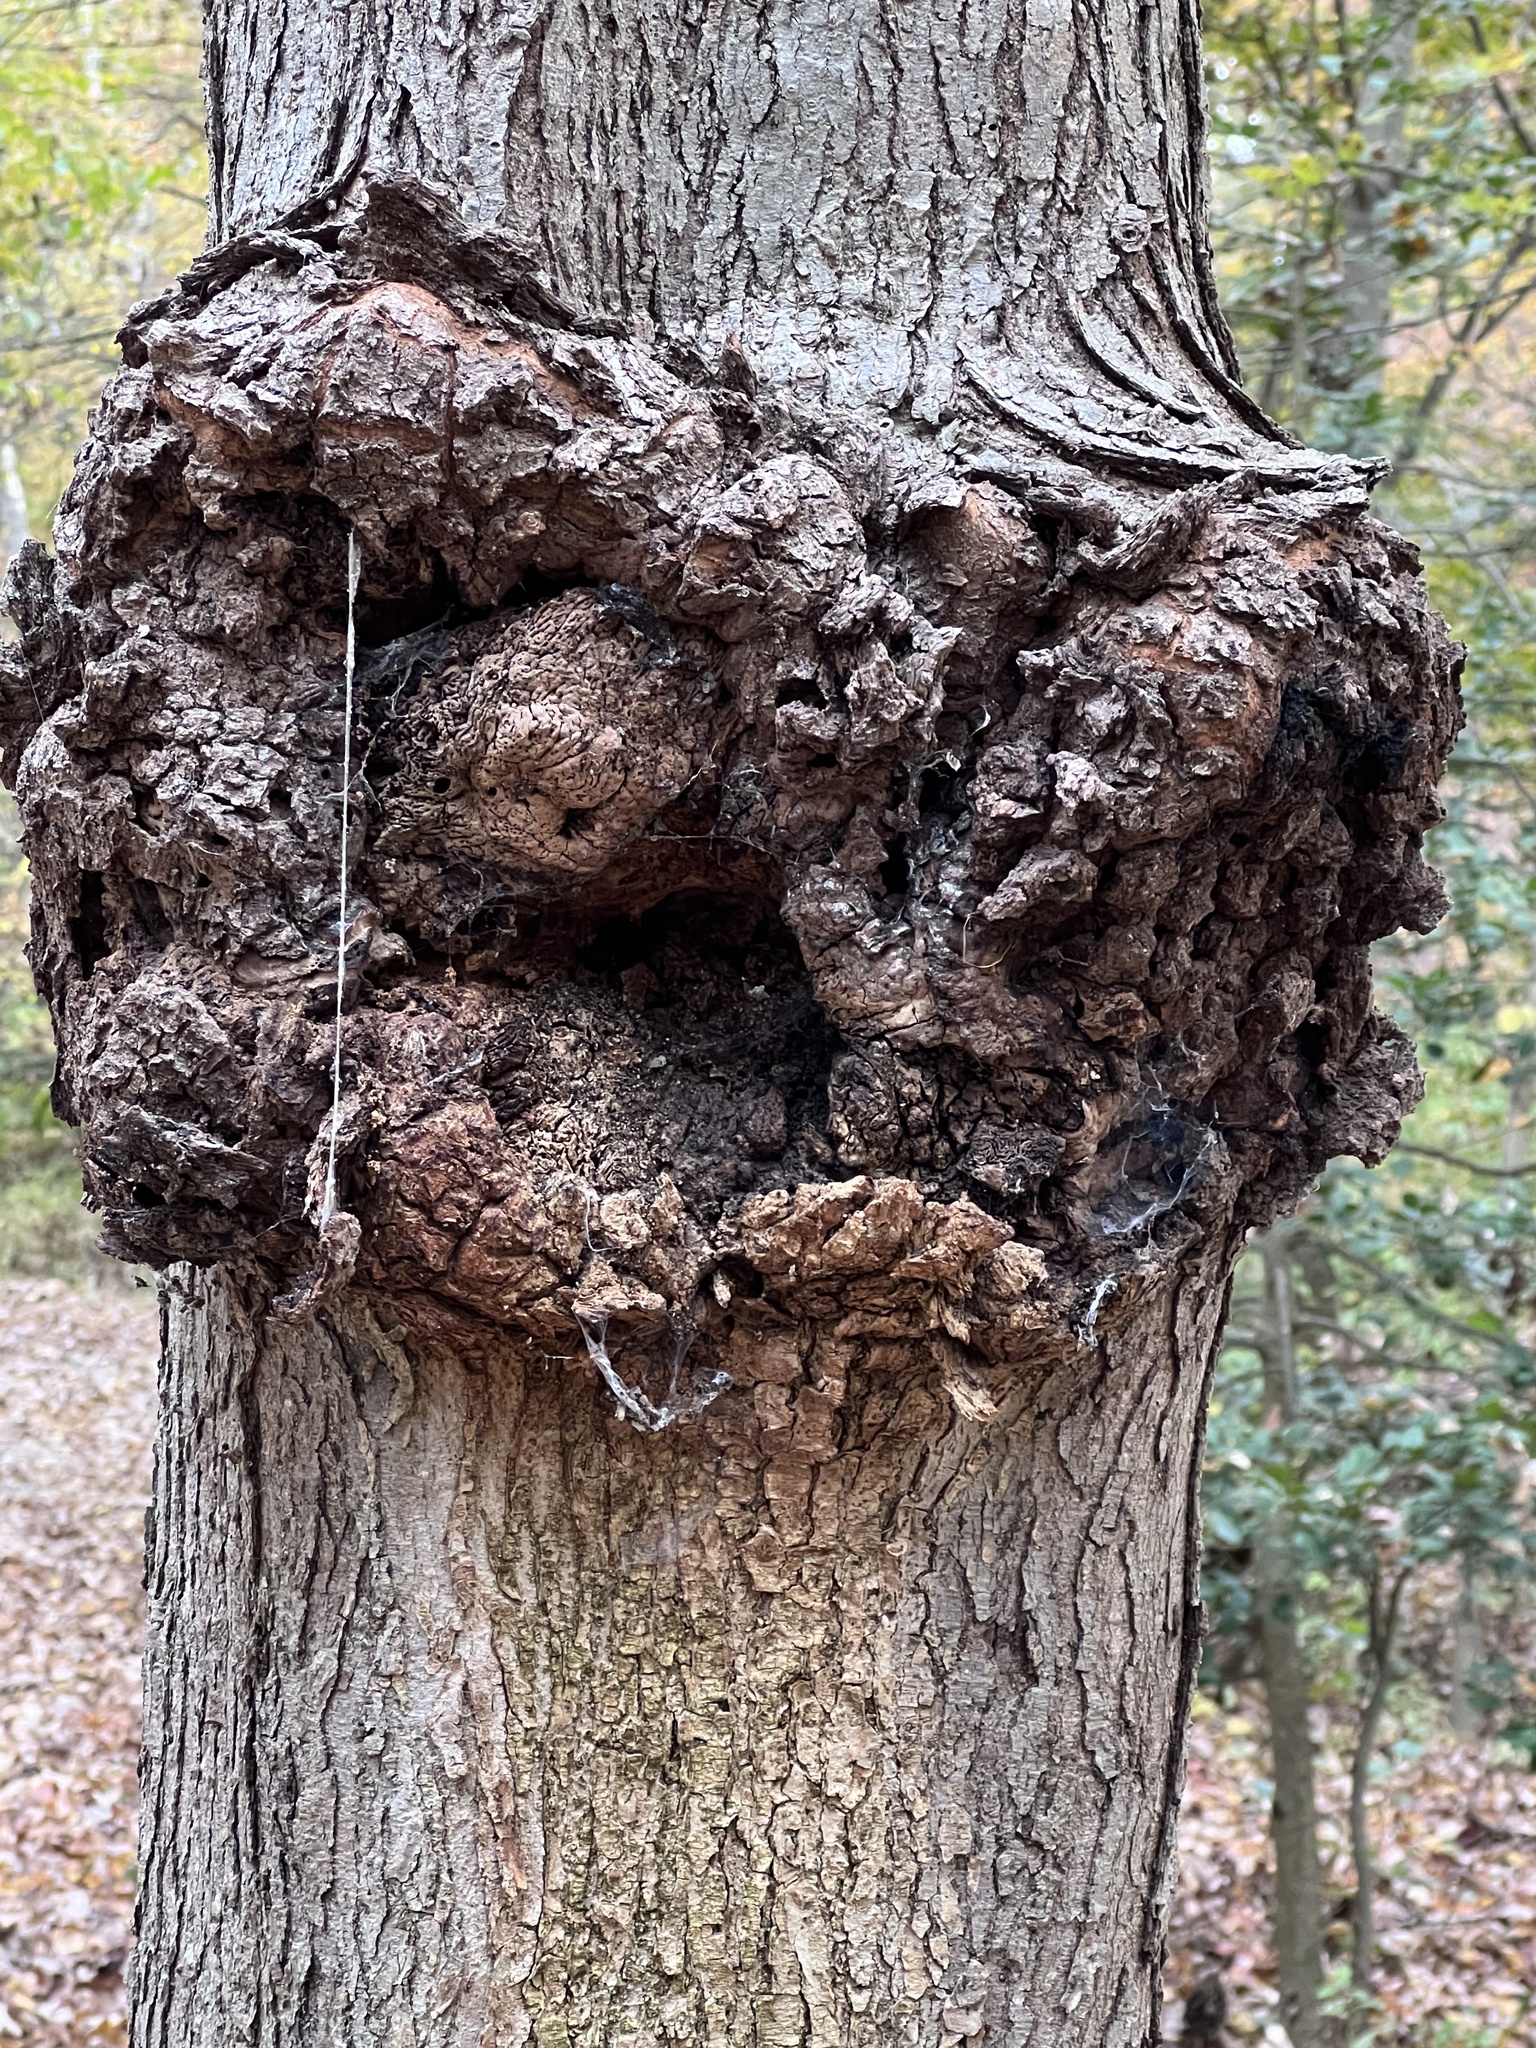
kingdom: Bacteria
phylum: Proteobacteria
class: Alphaproteobacteria
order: Rhizobiales
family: Rhizobiaceae
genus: Rhizobium
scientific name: Rhizobium Agrobacterium radiobacter
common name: Bacterial crown gall
